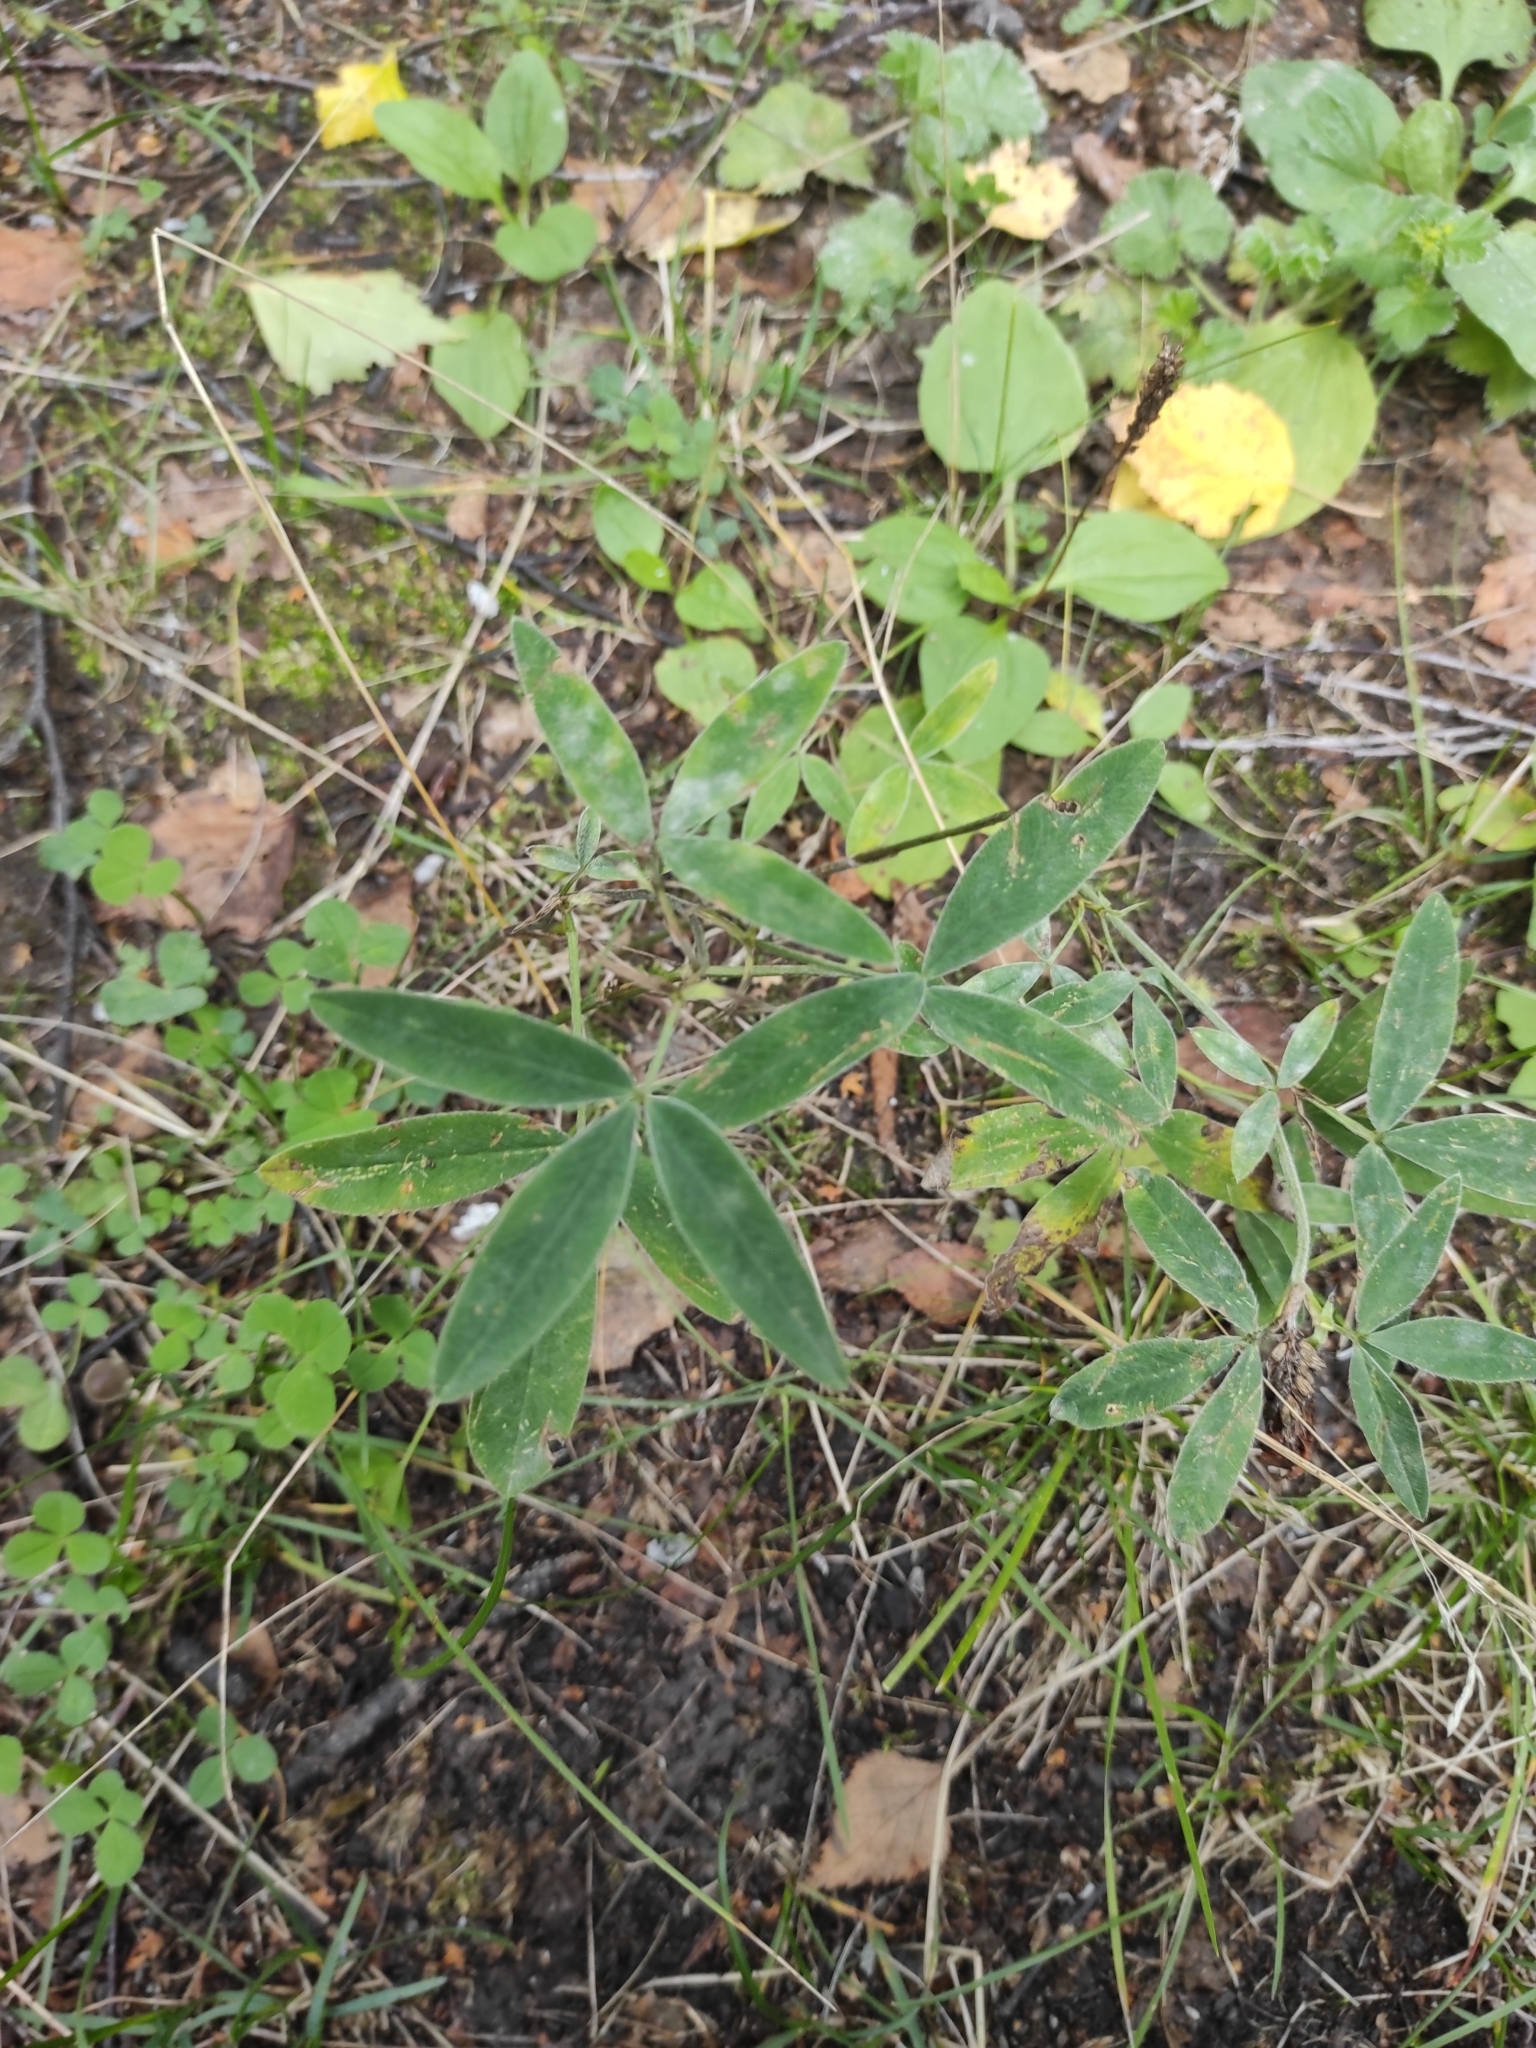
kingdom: Plantae
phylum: Tracheophyta
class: Magnoliopsida
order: Fabales
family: Fabaceae
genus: Trifolium
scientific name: Trifolium medium
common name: Zigzag clover
